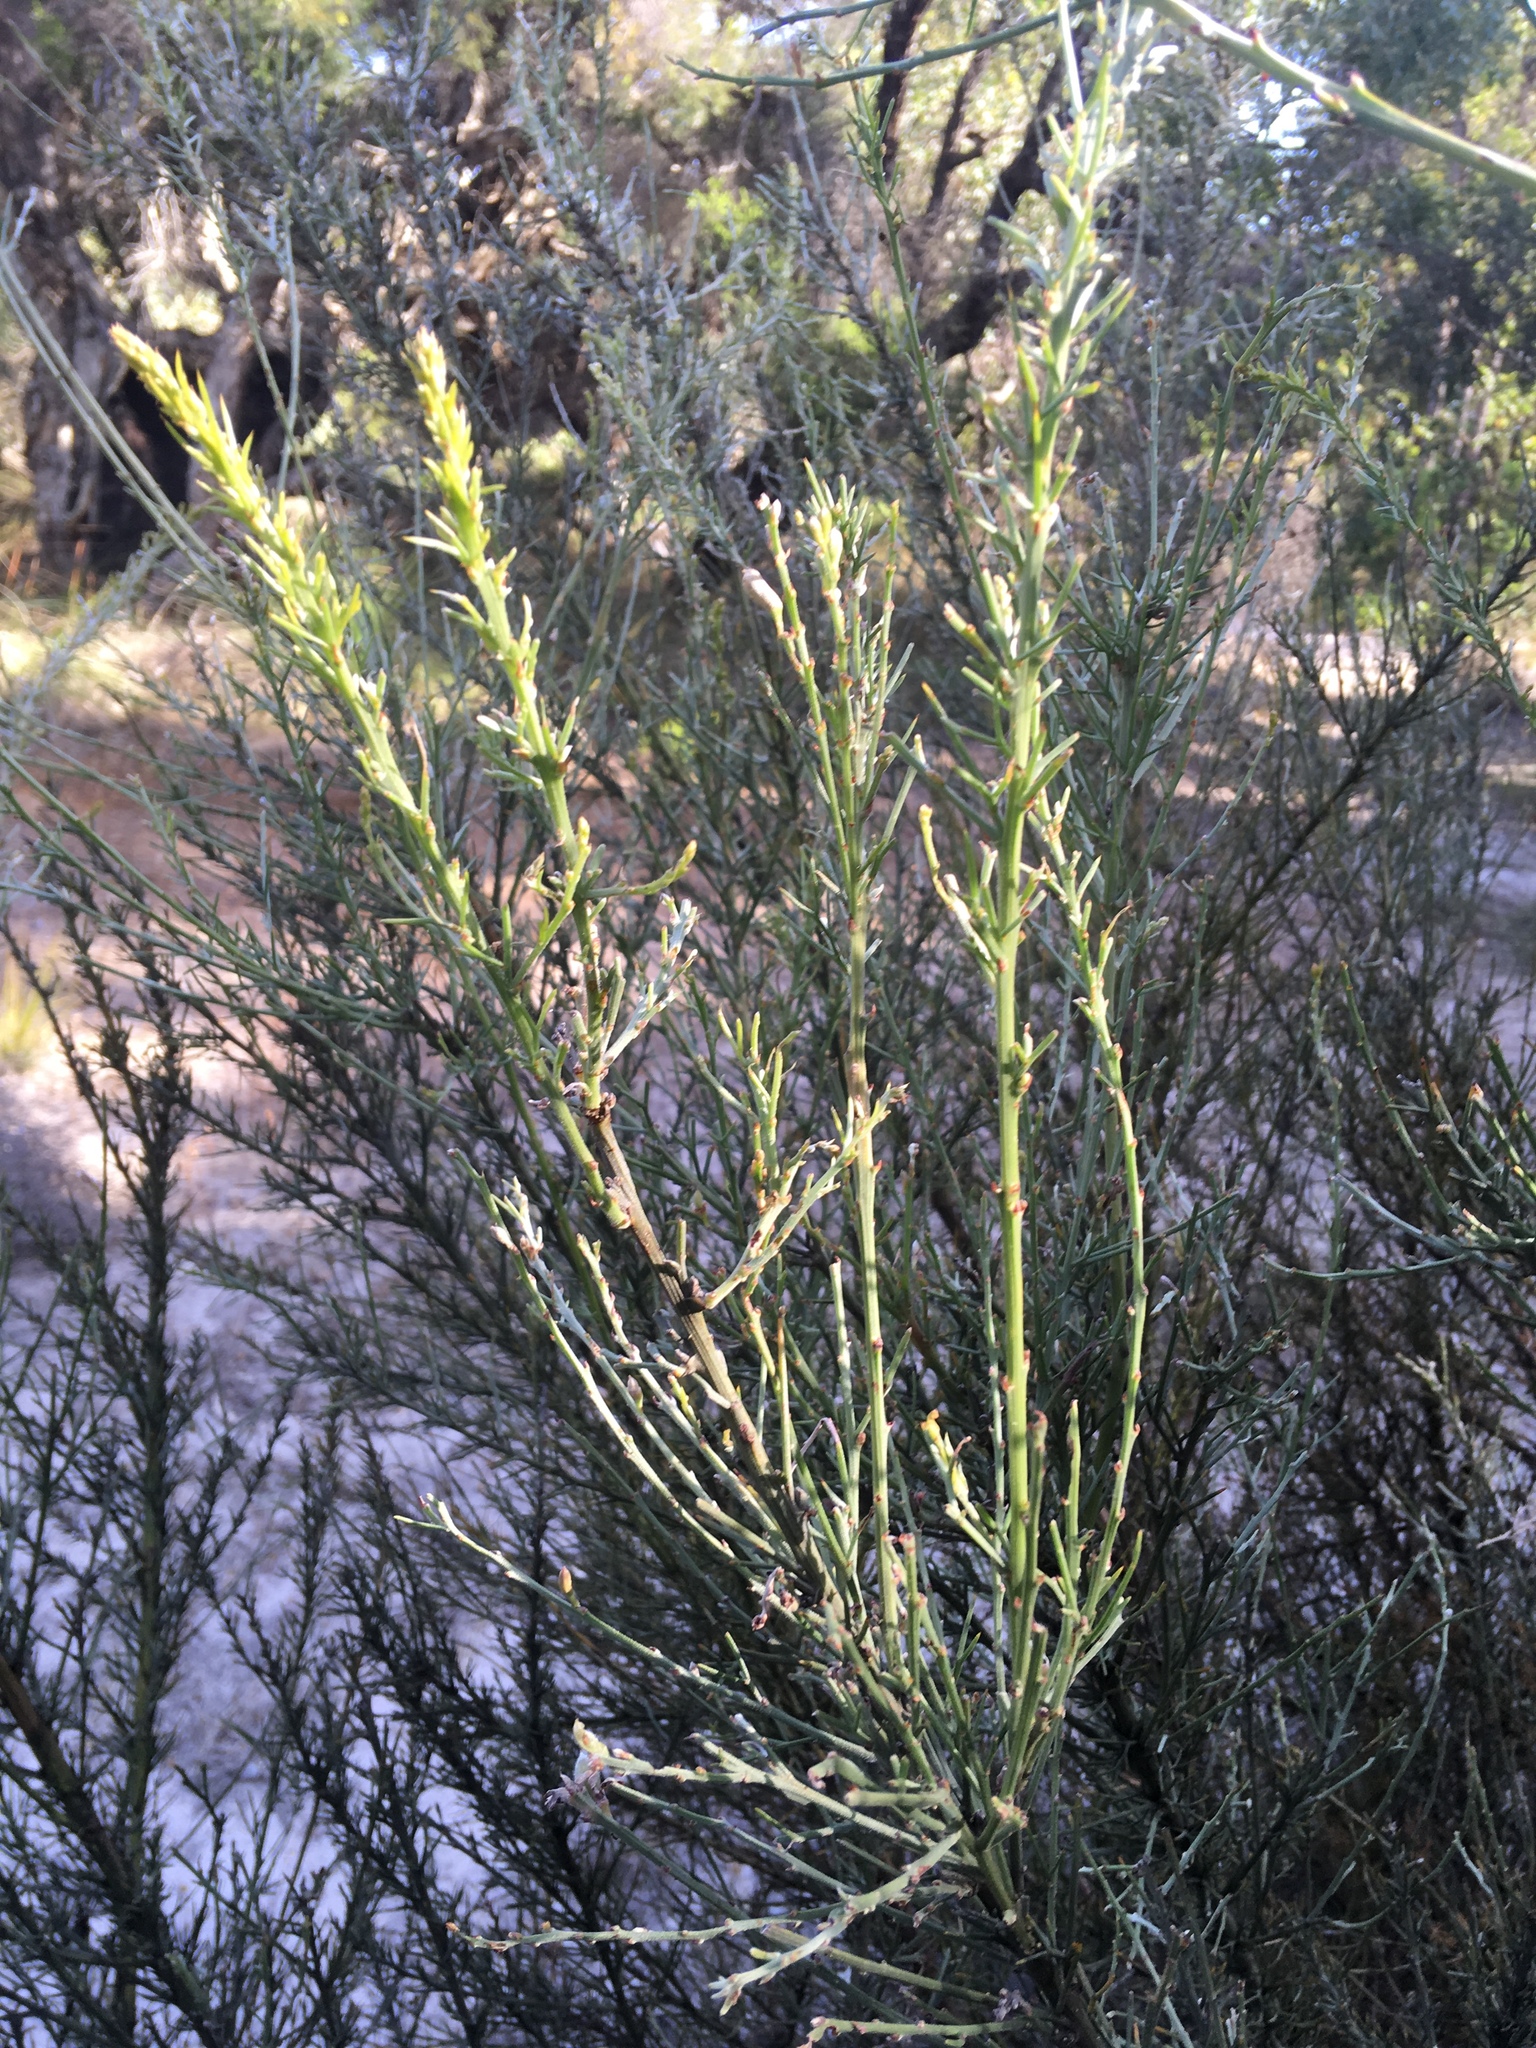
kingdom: Plantae
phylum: Tracheophyta
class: Magnoliopsida
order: Fabales
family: Fabaceae
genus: Jacksonia
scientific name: Jacksonia furcellata
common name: Grey stinkwood
